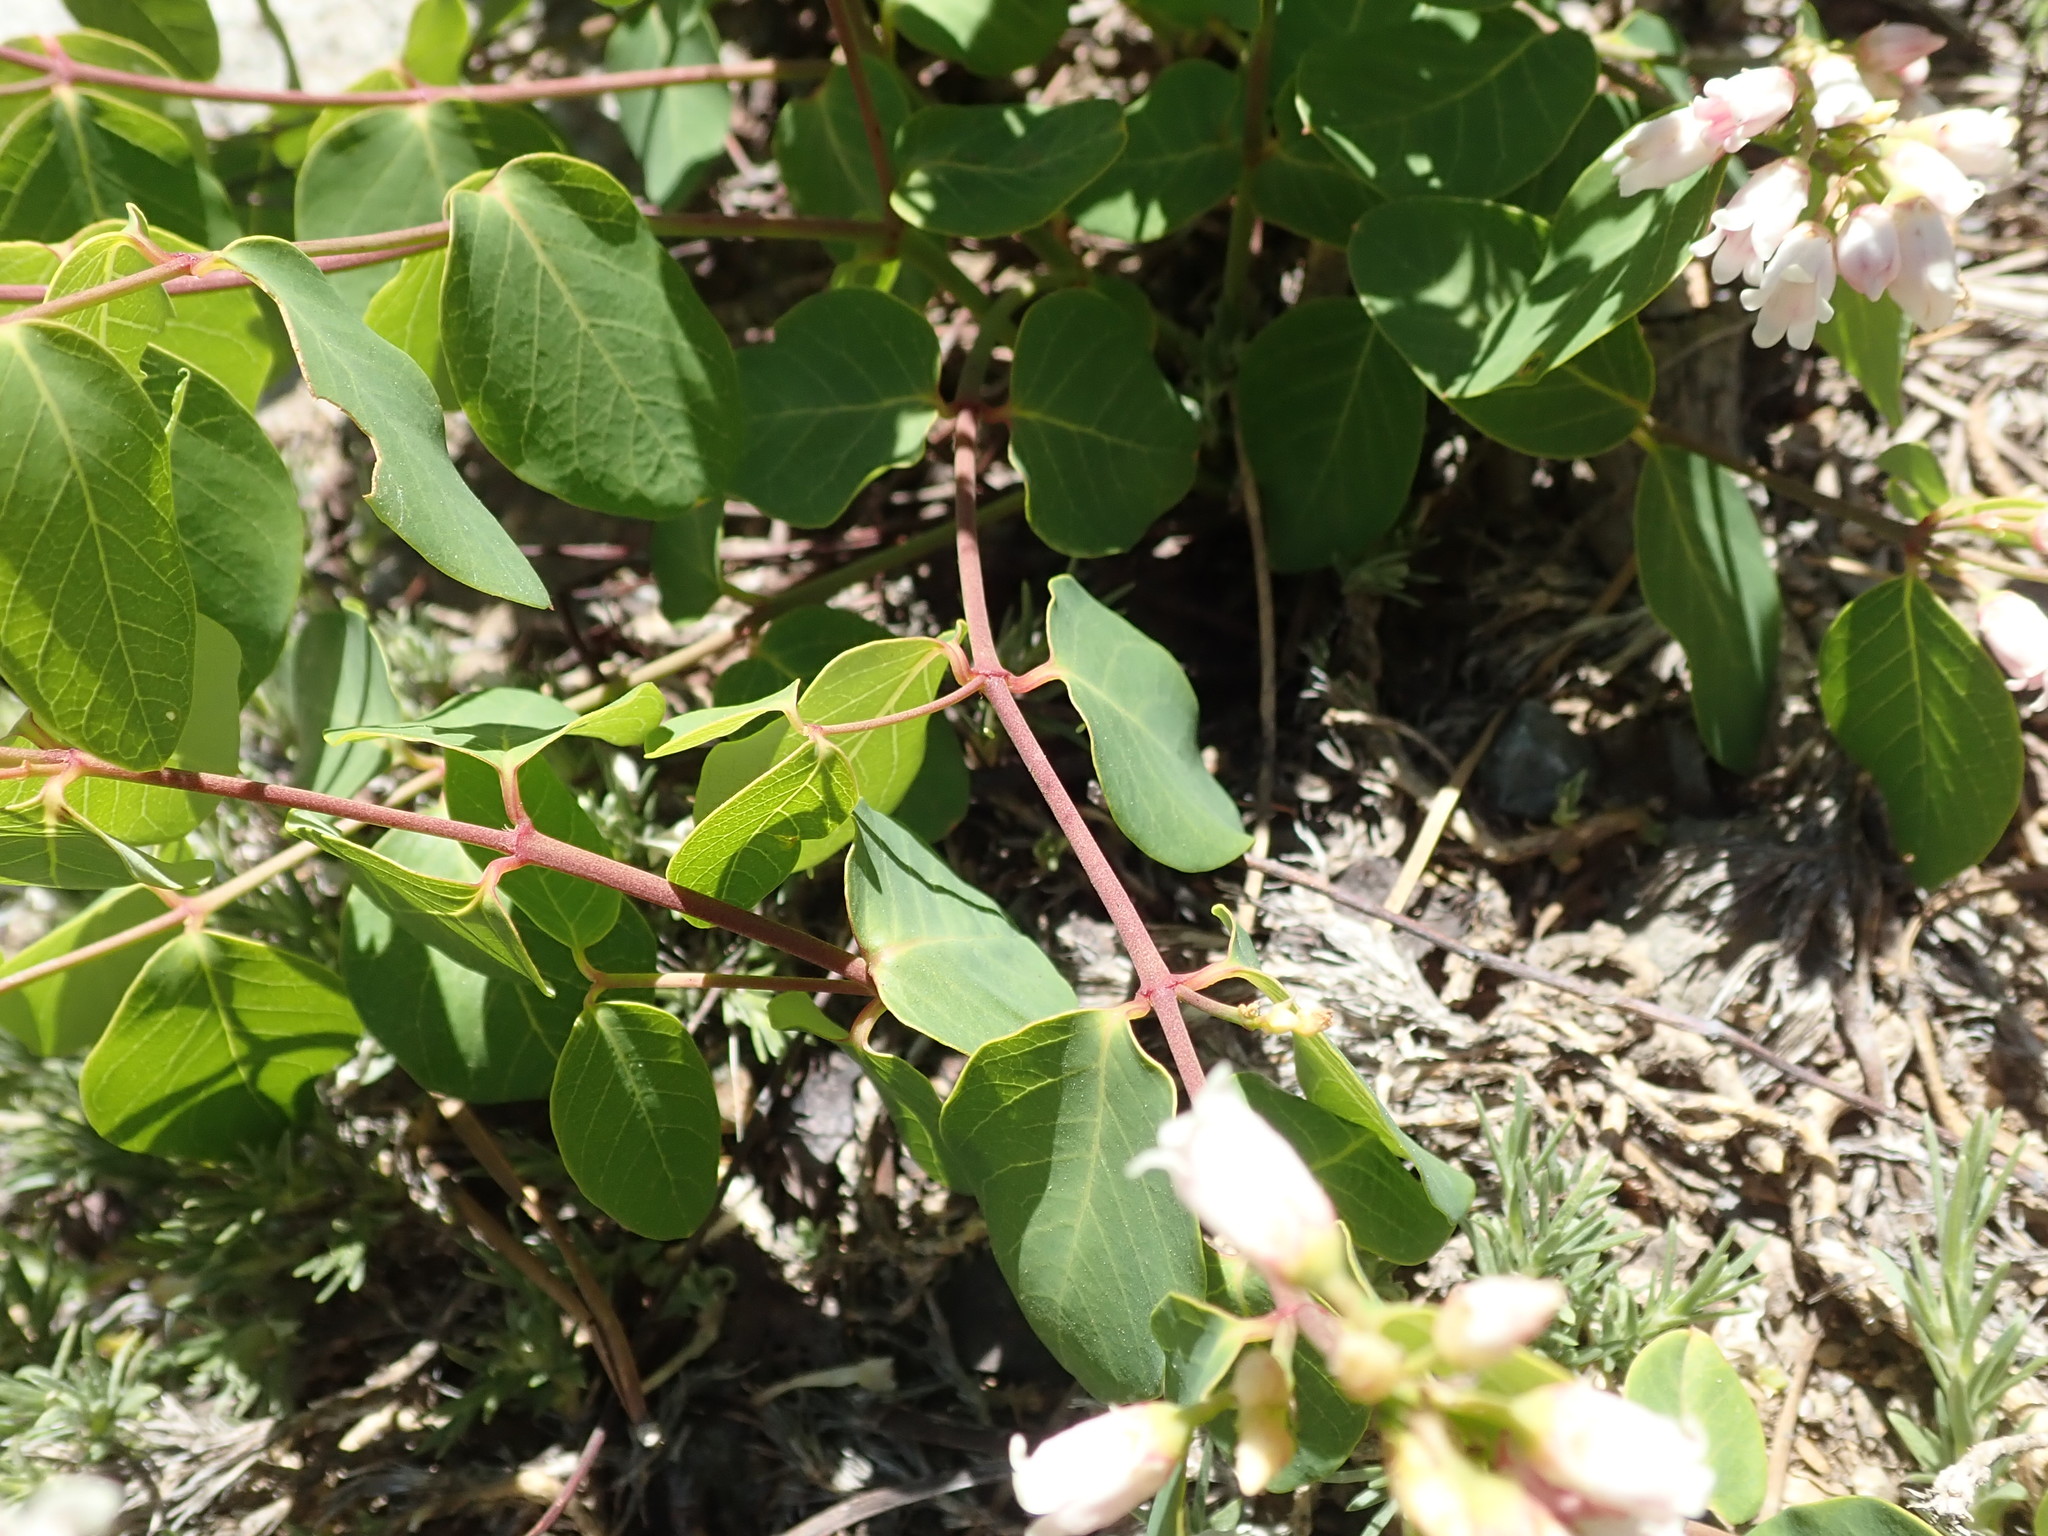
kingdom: Plantae
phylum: Tracheophyta
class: Magnoliopsida
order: Gentianales
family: Apocynaceae
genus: Apocynum
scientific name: Apocynum androsaemifolium
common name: Spreading dogbane
